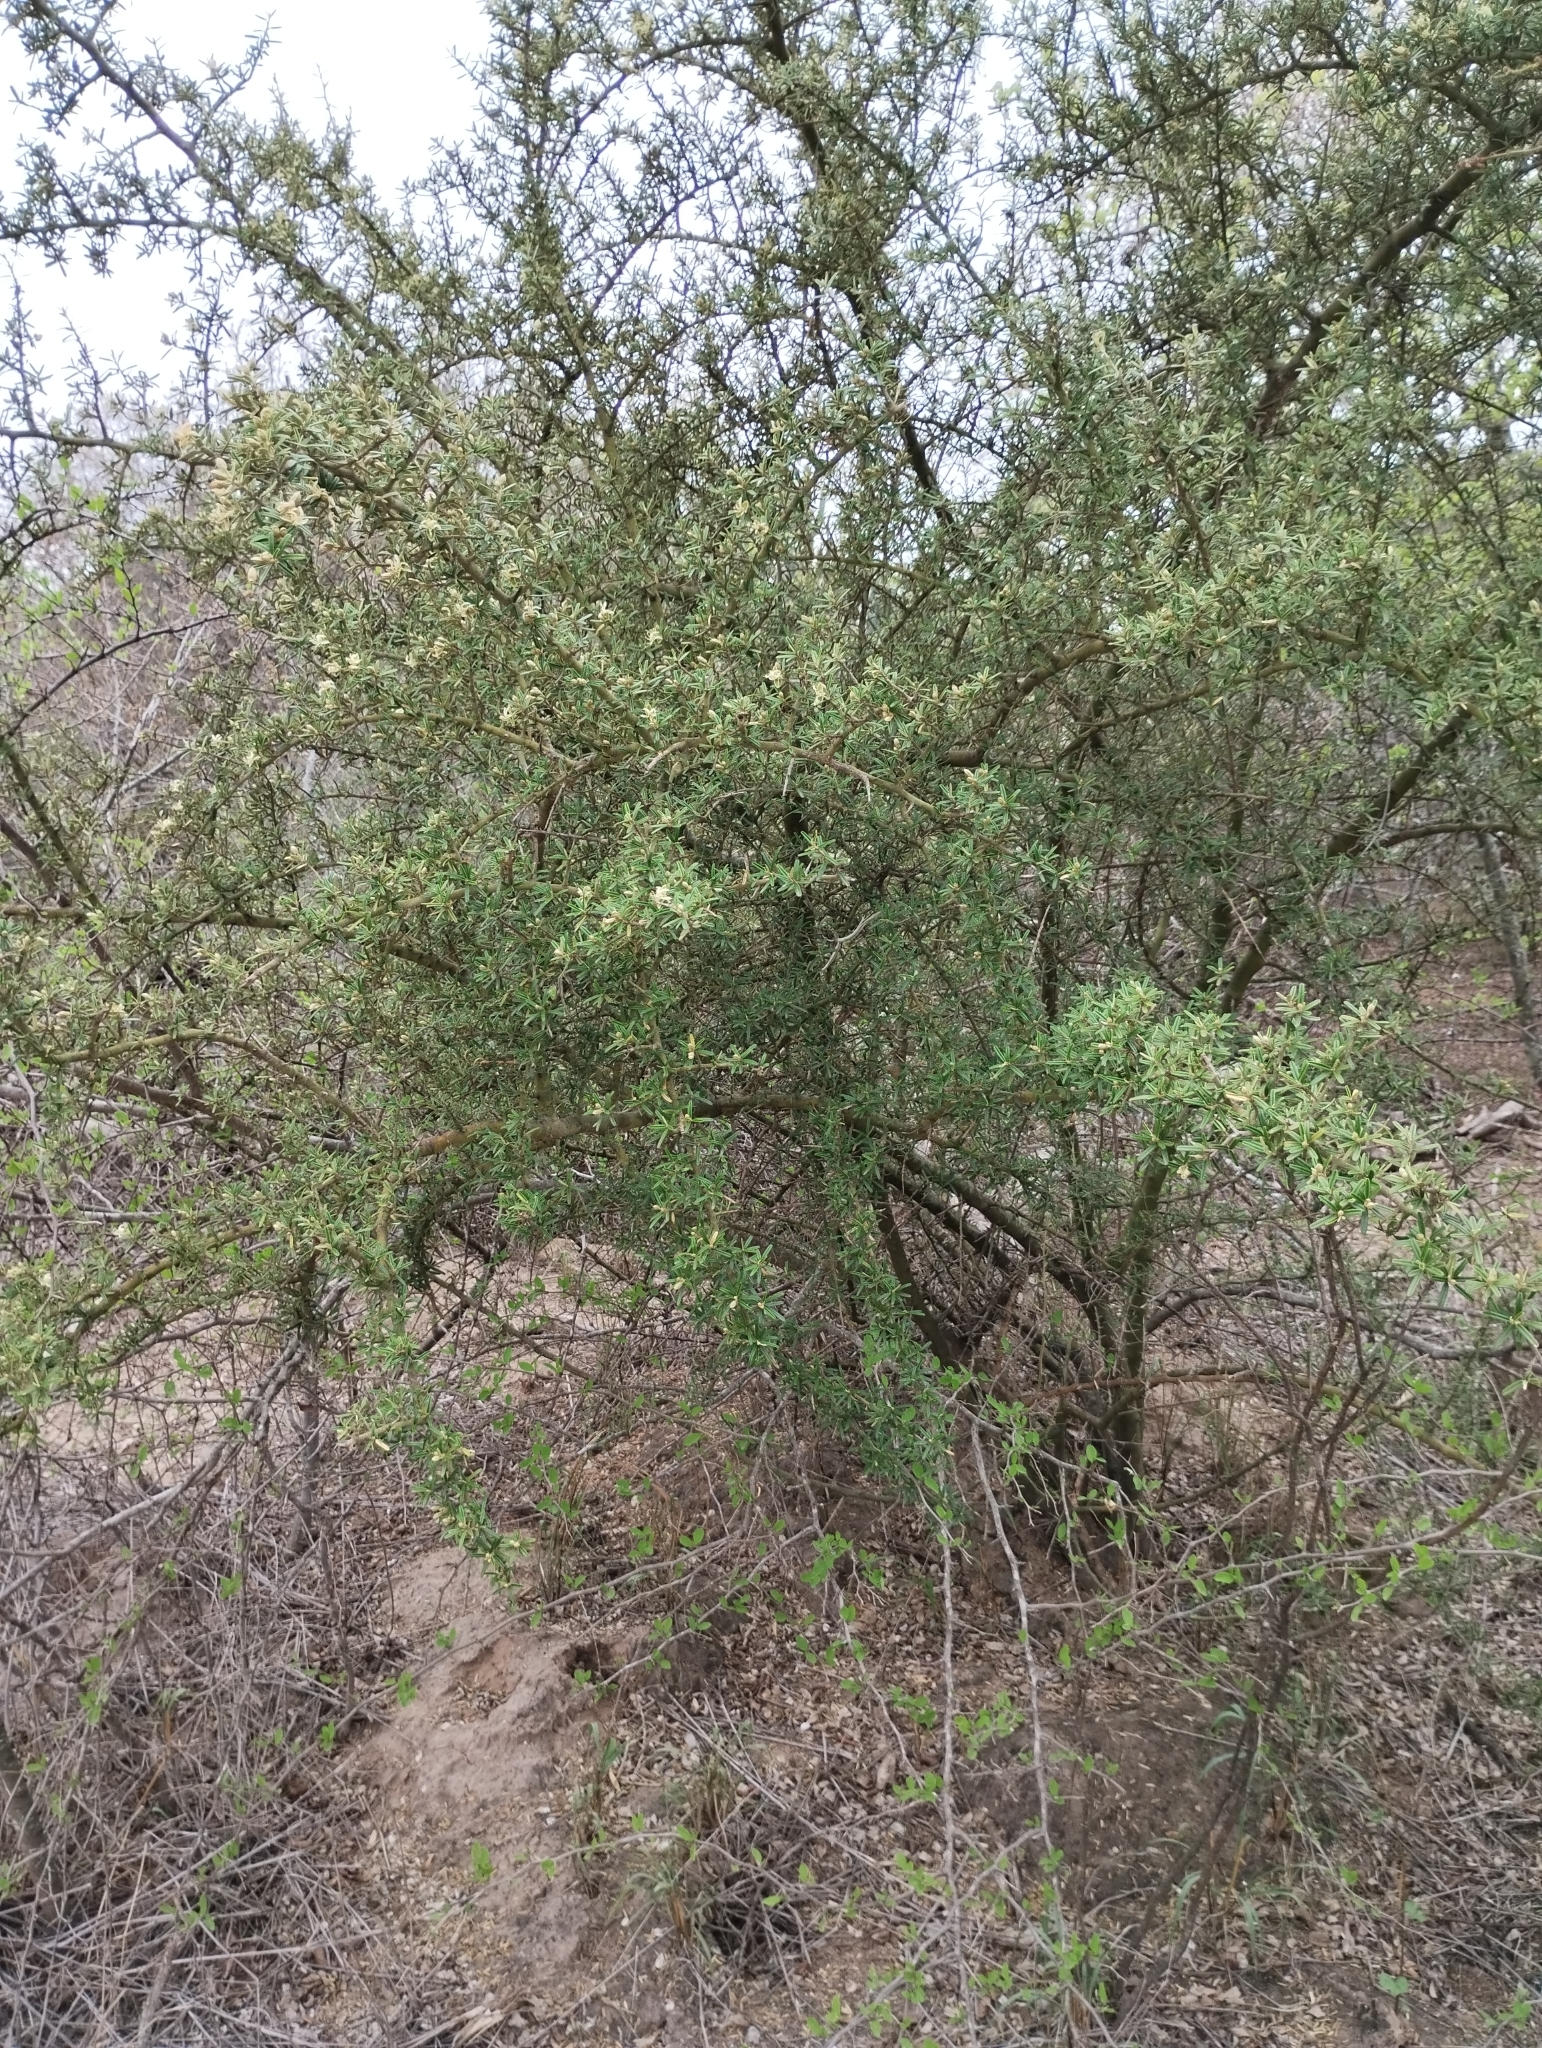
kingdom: Plantae
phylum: Tracheophyta
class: Magnoliopsida
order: Brassicales
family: Capparaceae
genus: Atamisquea
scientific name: Atamisquea emarginata
